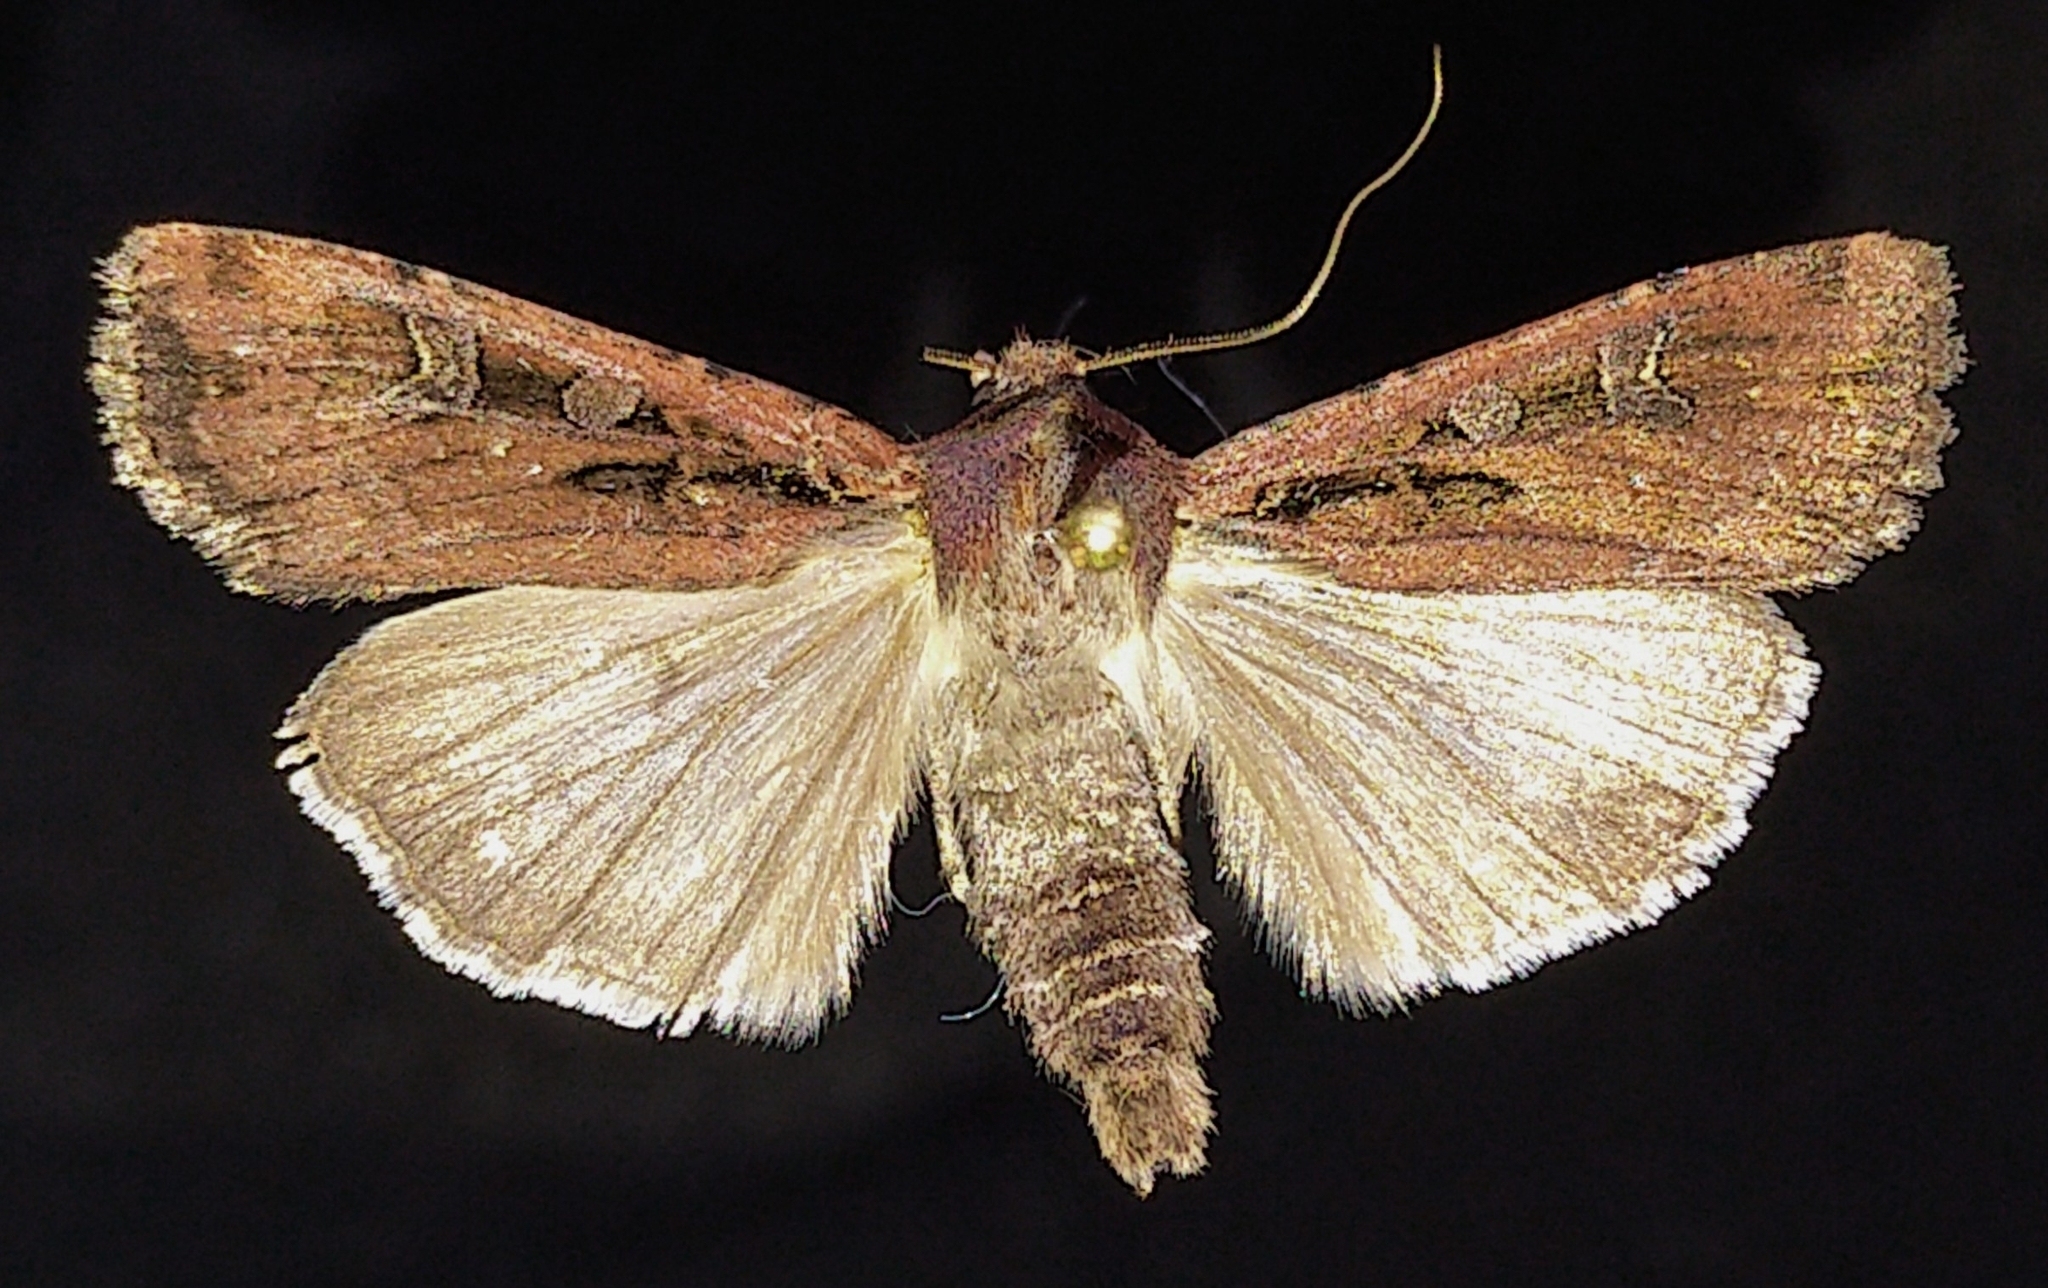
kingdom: Animalia
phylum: Arthropoda
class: Insecta
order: Lepidoptera
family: Noctuidae
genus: Euxoa
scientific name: Euxoa adumbrata
